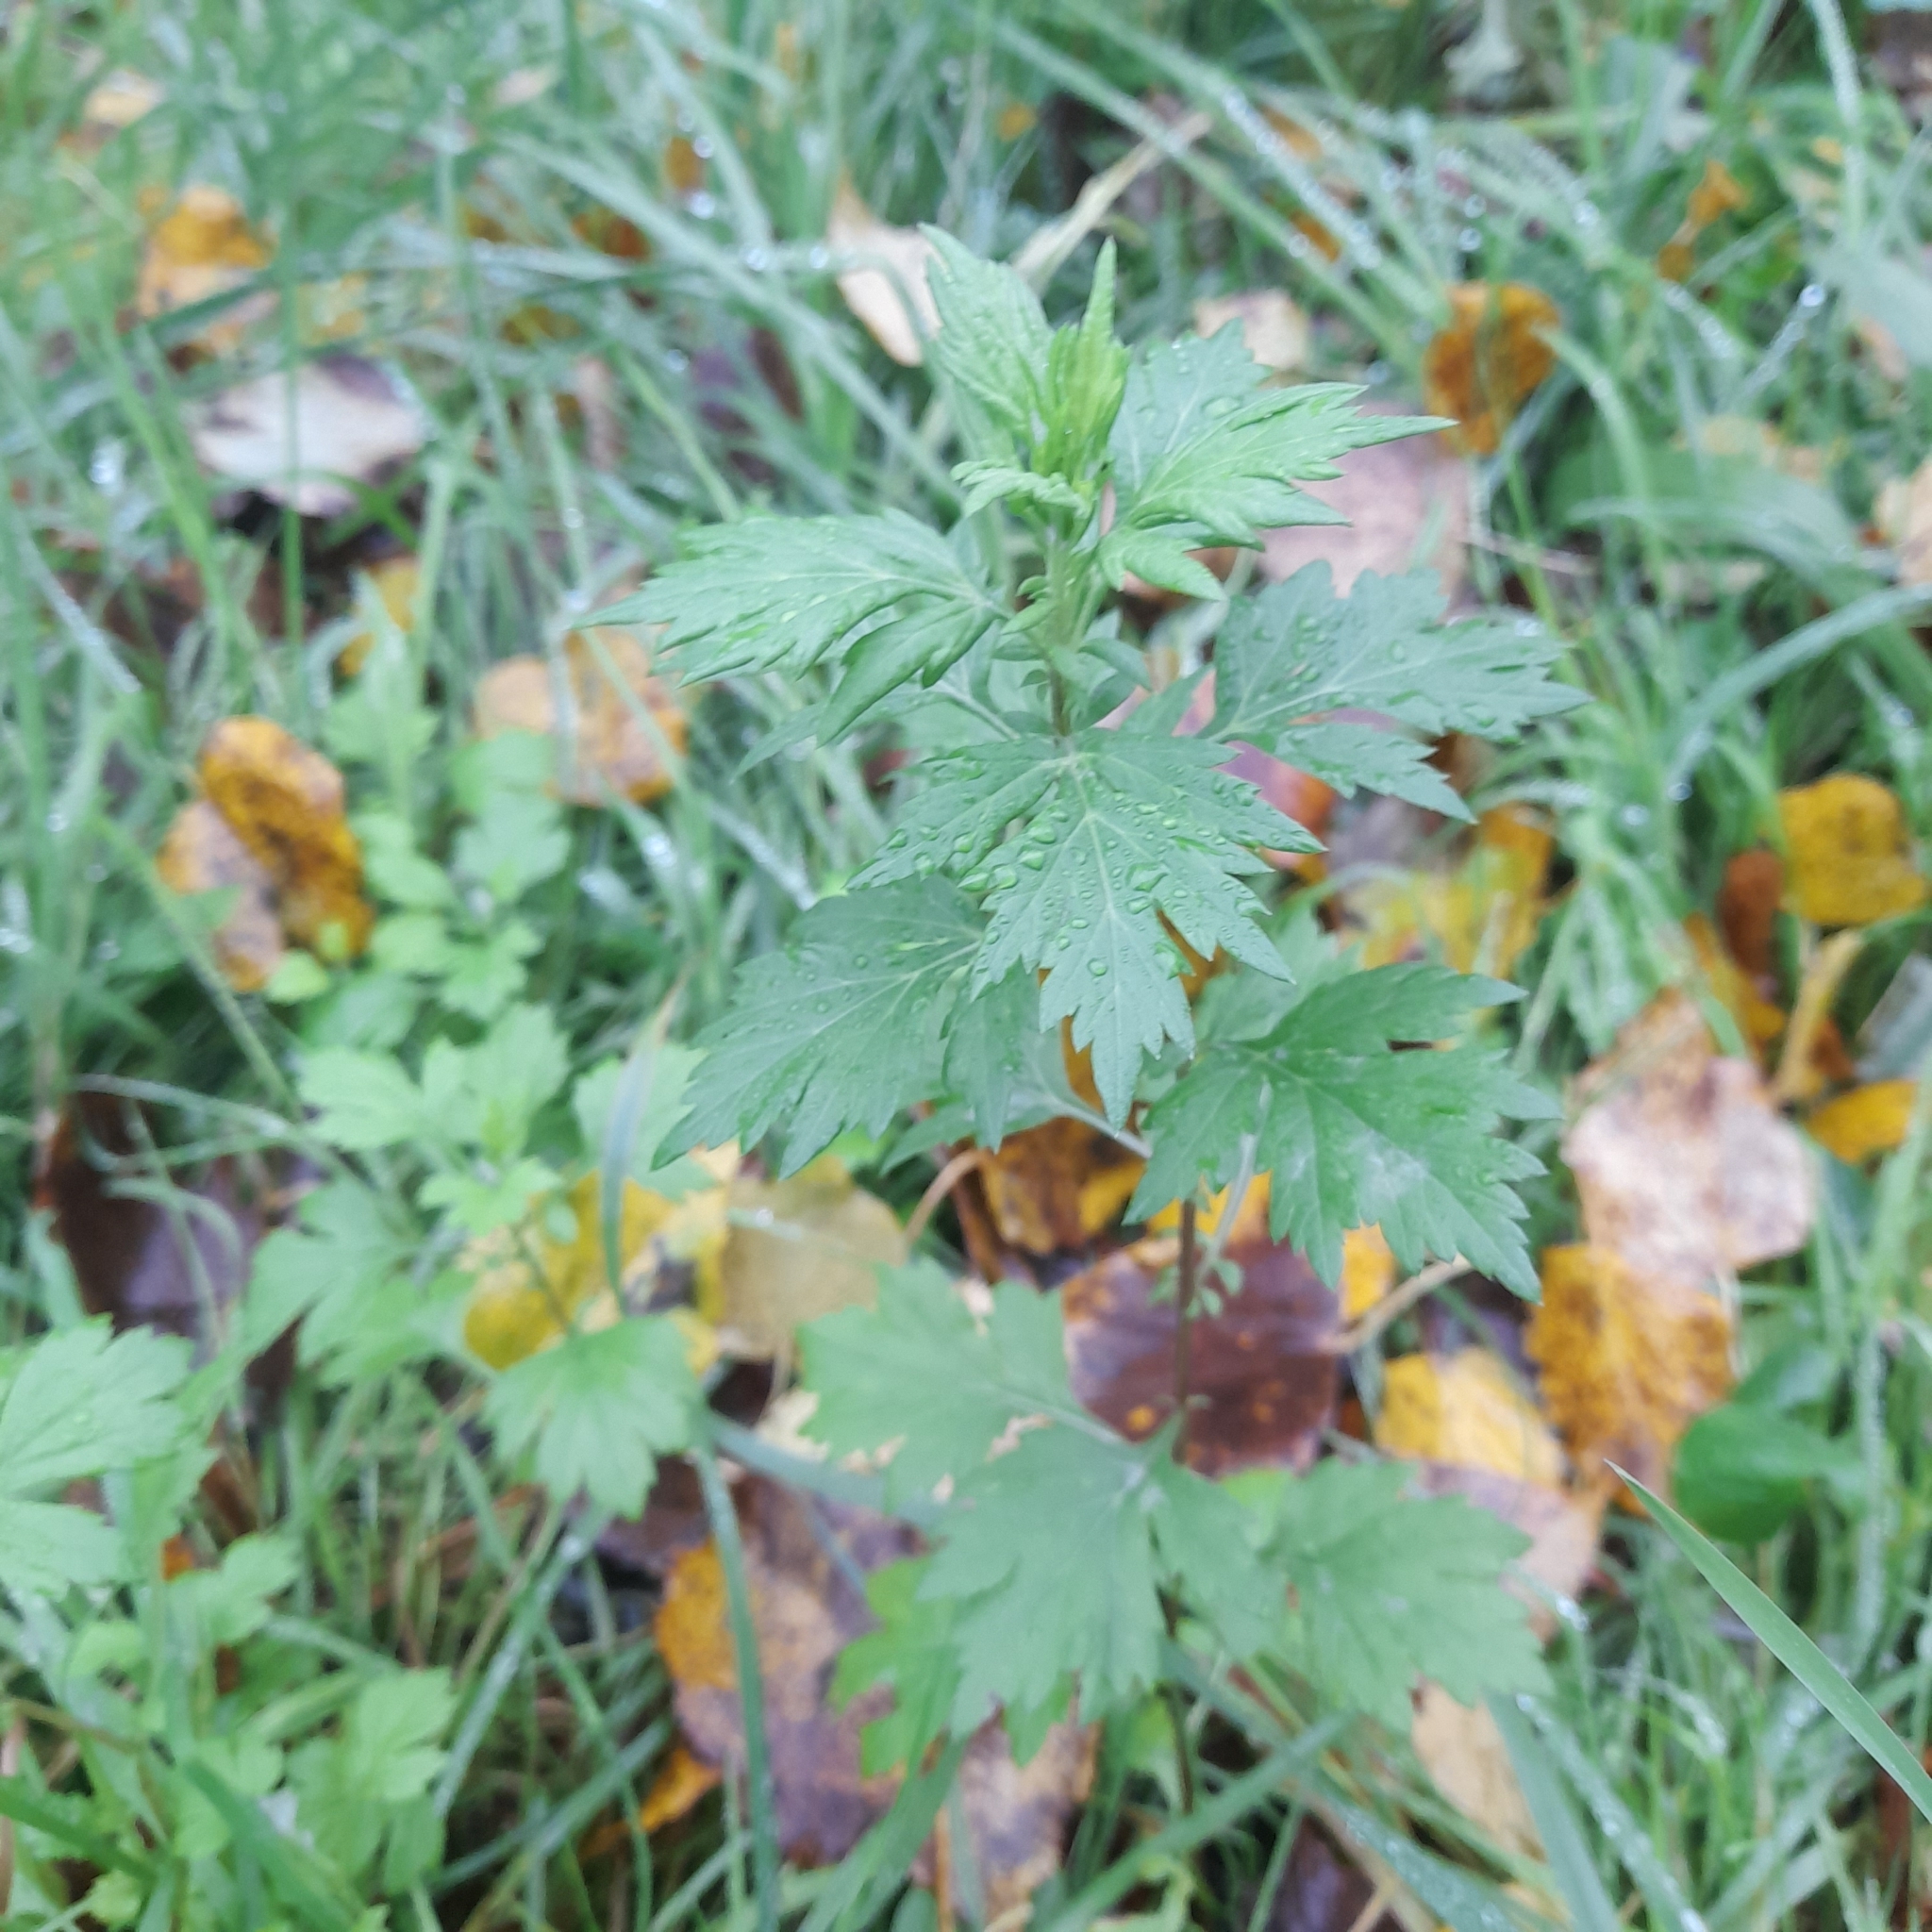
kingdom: Plantae
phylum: Tracheophyta
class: Magnoliopsida
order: Asterales
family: Asteraceae
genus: Artemisia
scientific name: Artemisia vulgaris
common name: Mugwort
